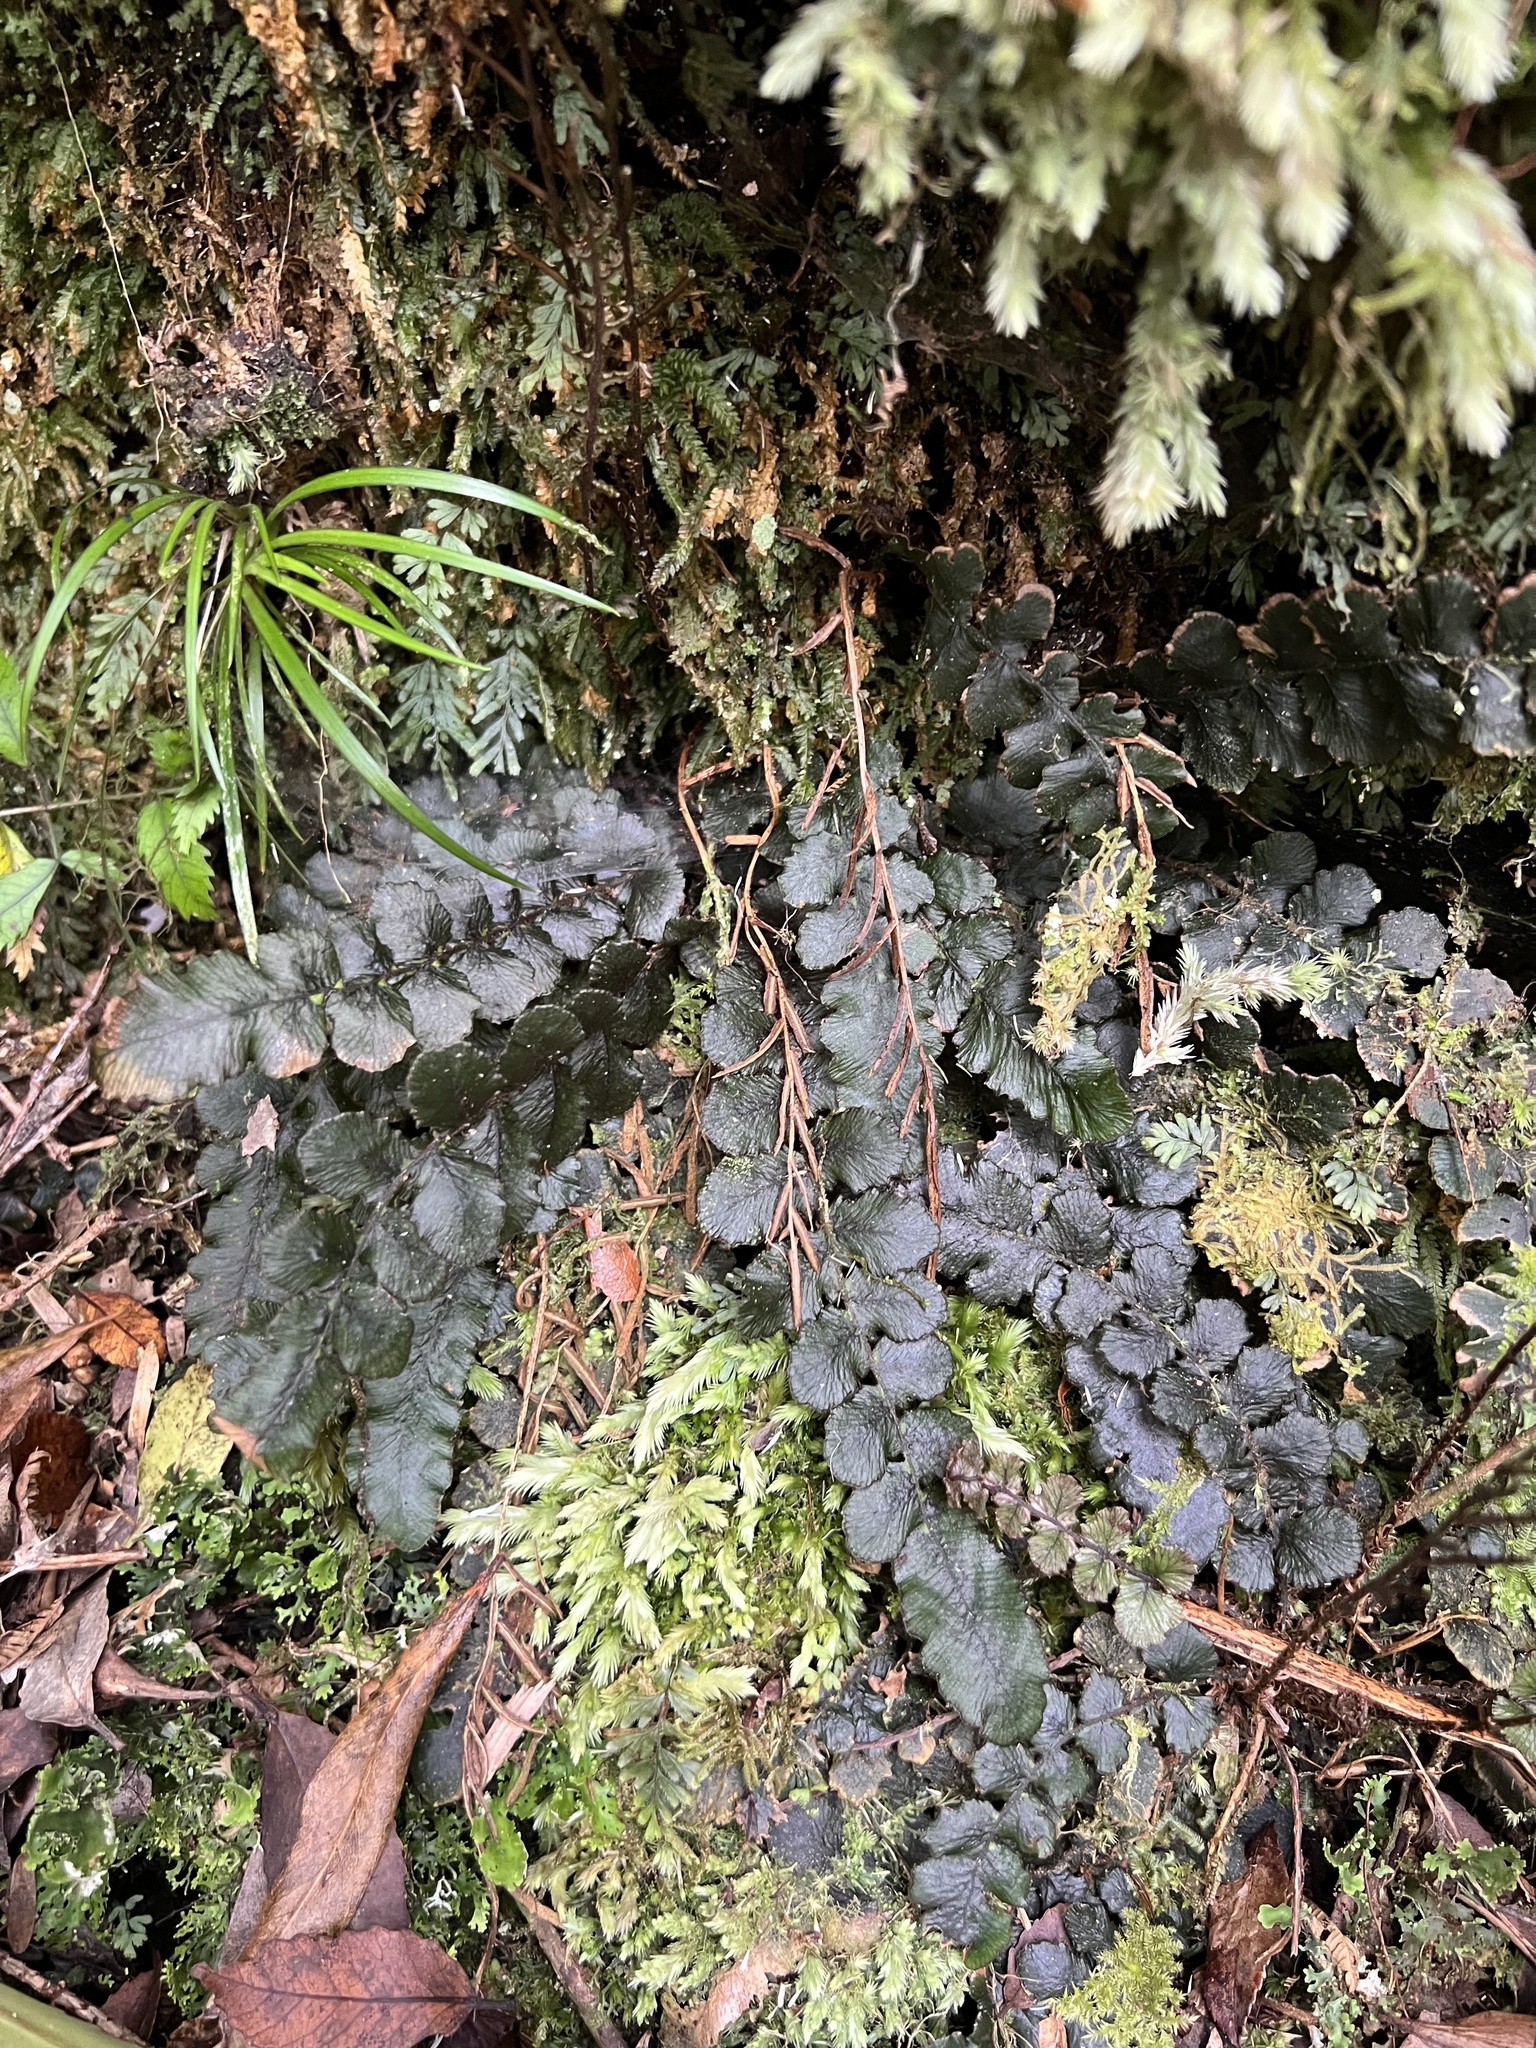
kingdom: Plantae
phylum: Tracheophyta
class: Polypodiopsida
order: Polypodiales
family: Blechnaceae
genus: Cranfillia
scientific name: Cranfillia nigra
